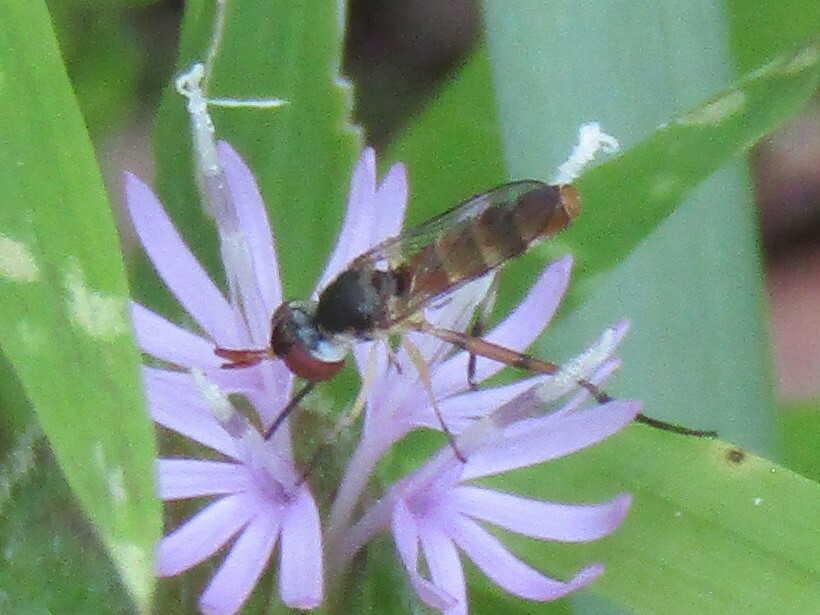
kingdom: Animalia
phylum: Arthropoda
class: Insecta
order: Diptera
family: Conopidae
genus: Stylogaster
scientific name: Stylogaster neglecta
